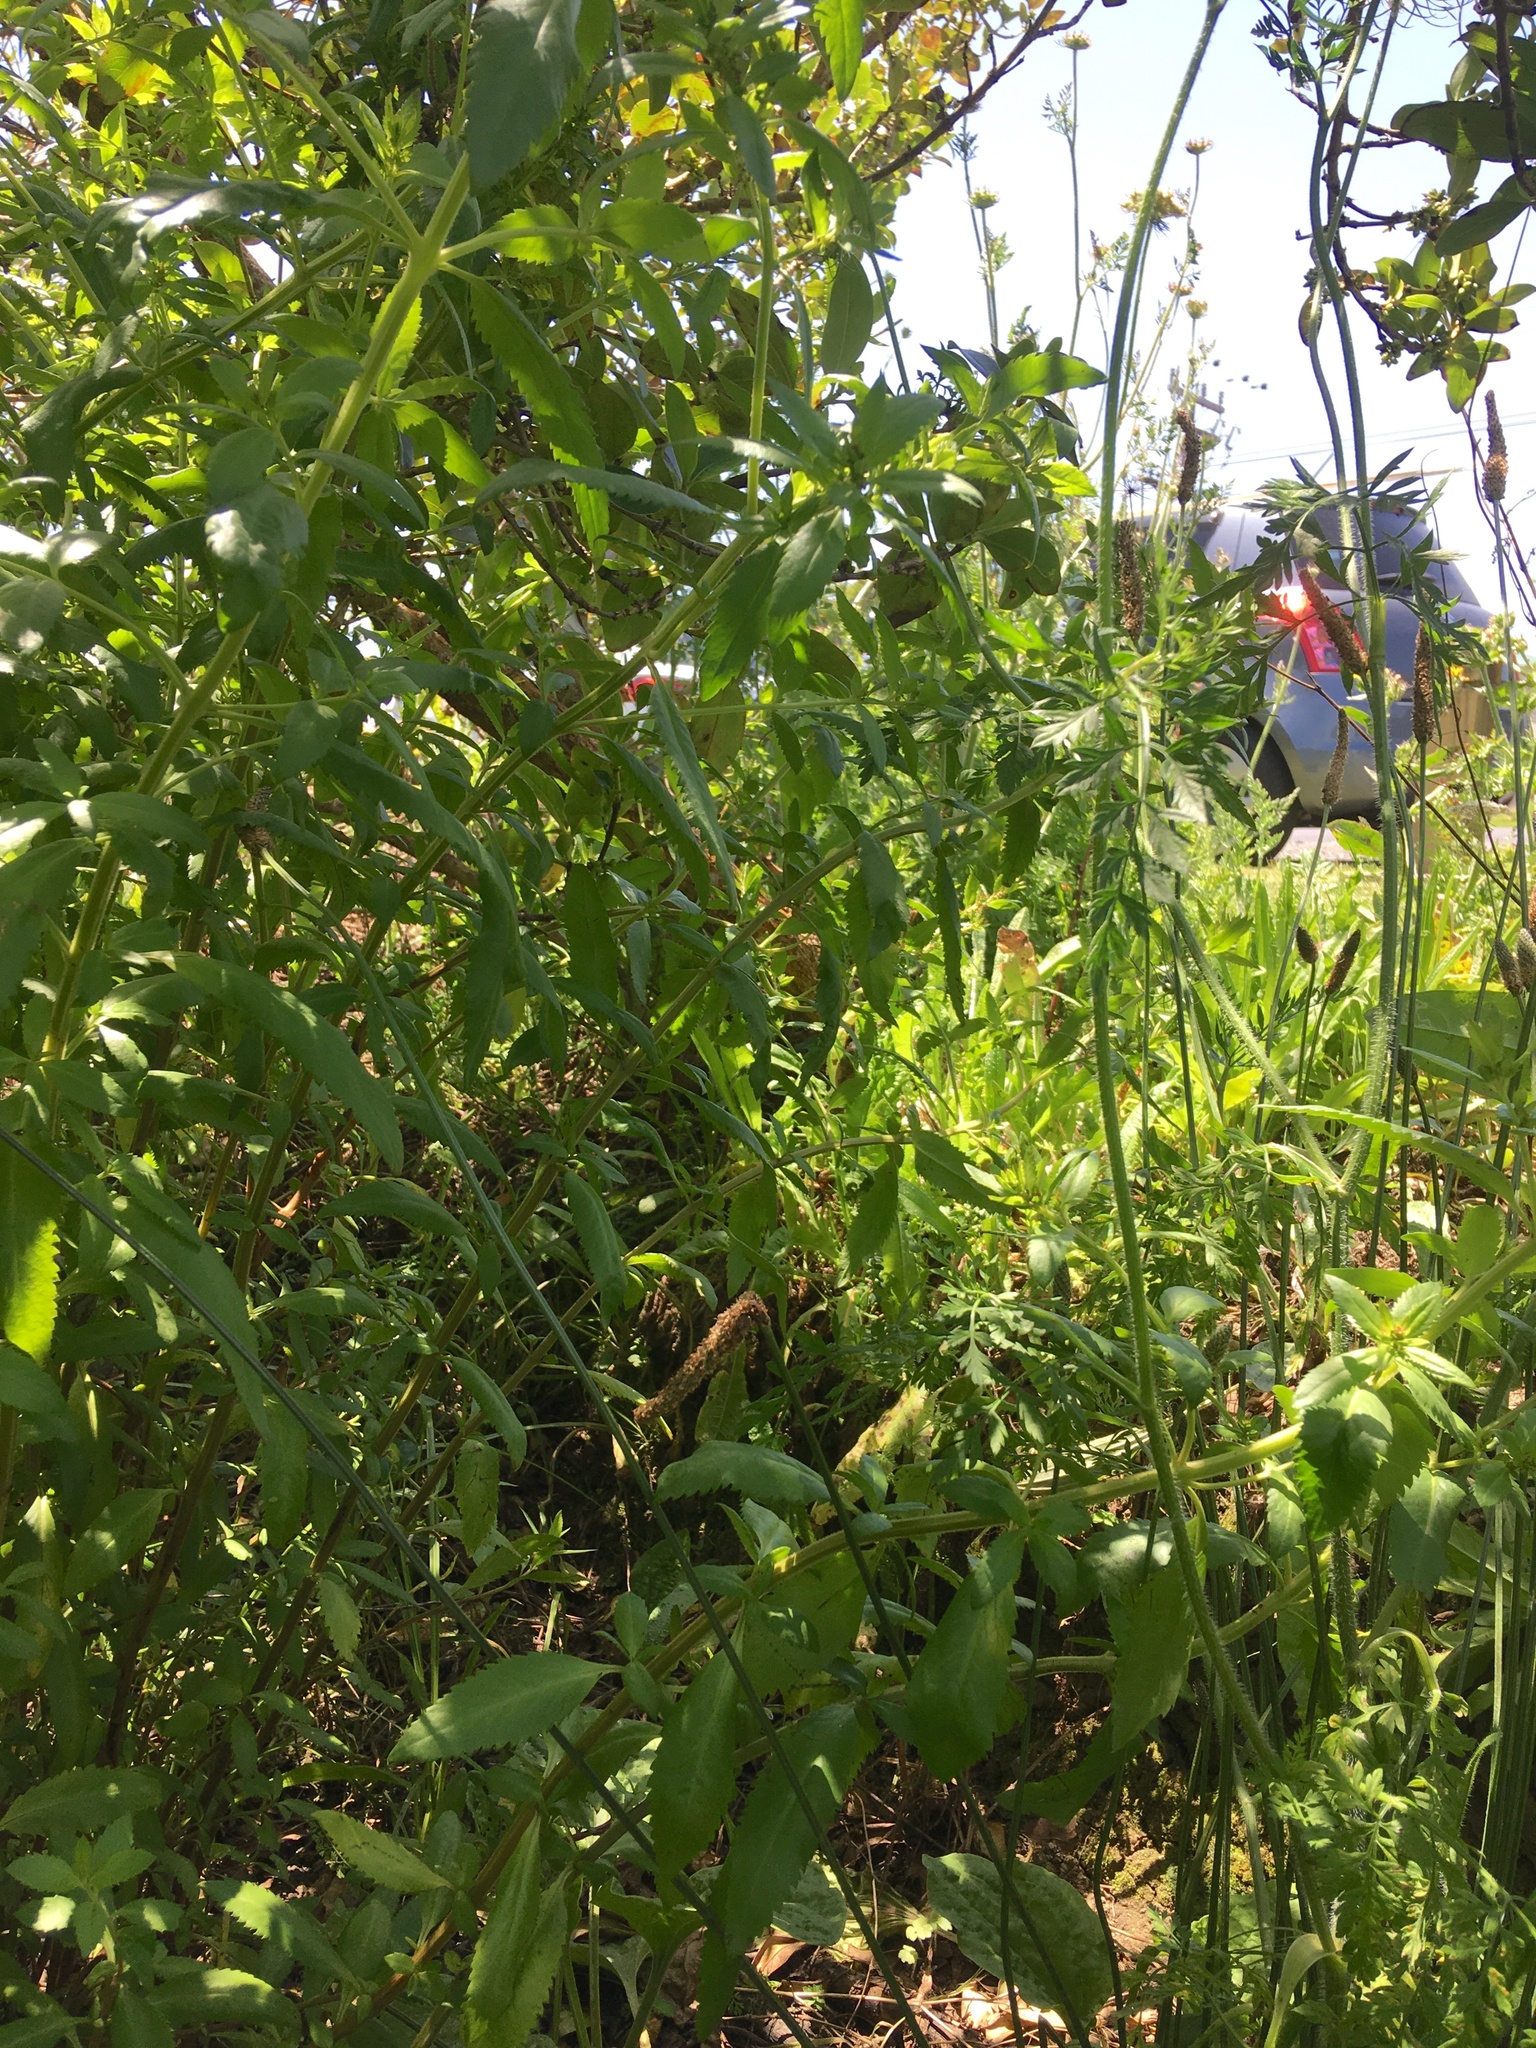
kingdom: Plantae
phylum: Tracheophyta
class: Magnoliopsida
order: Saxifragales
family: Haloragaceae
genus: Haloragis
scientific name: Haloragis erecta
